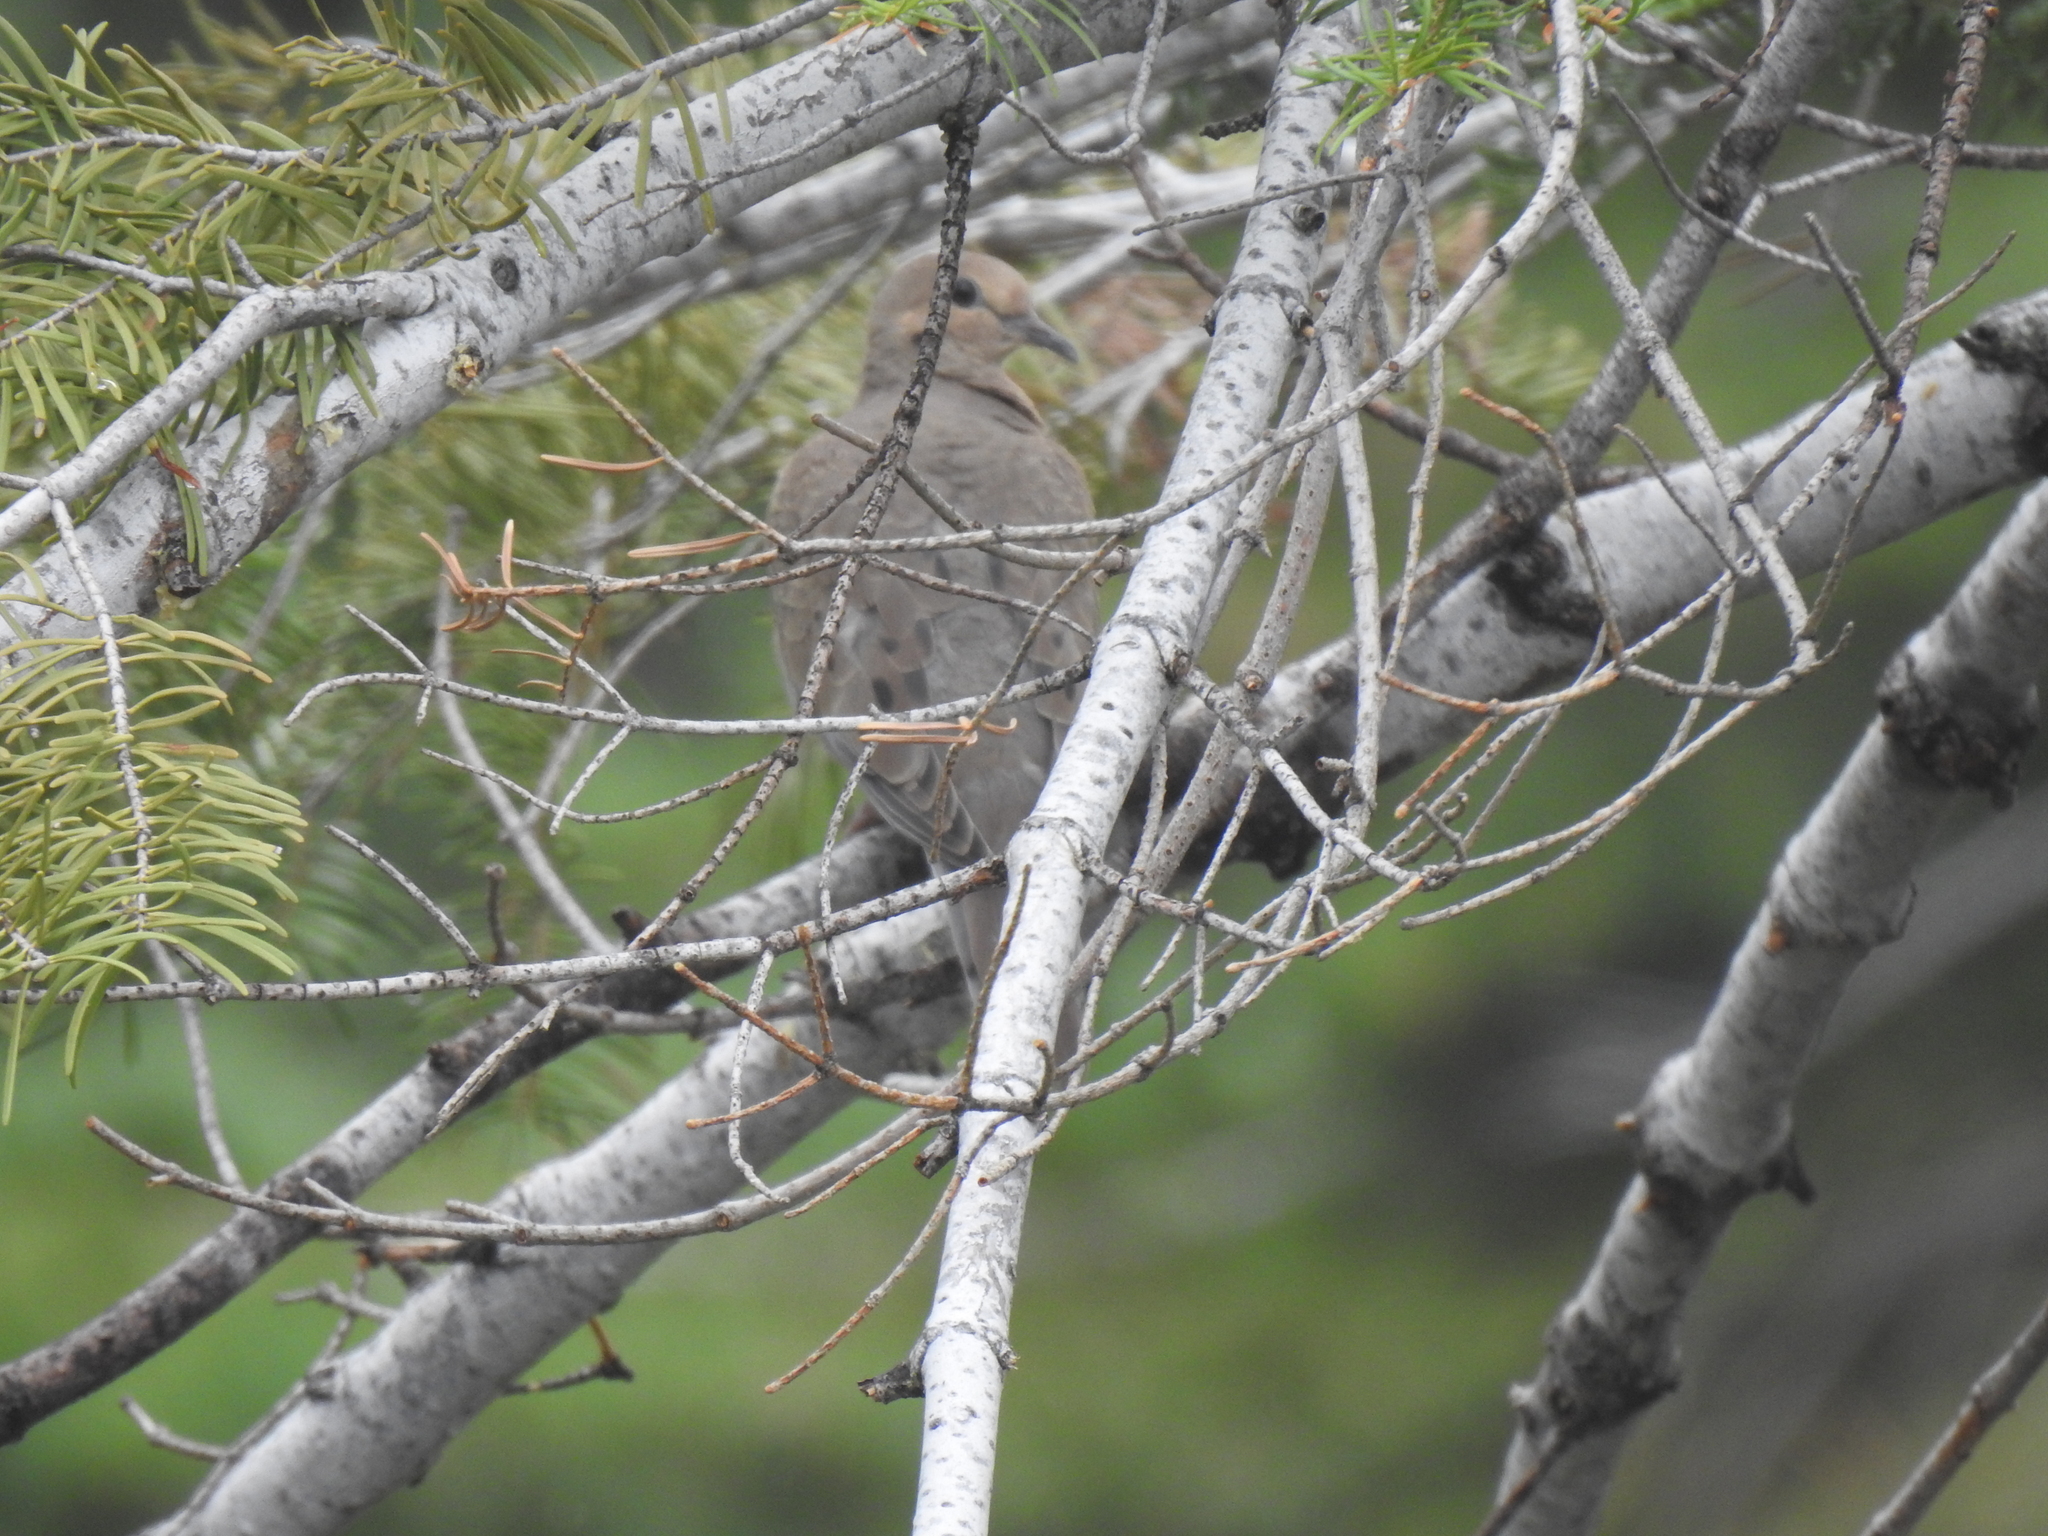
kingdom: Animalia
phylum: Chordata
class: Aves
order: Columbiformes
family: Columbidae
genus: Zenaida
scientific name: Zenaida macroura
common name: Mourning dove
